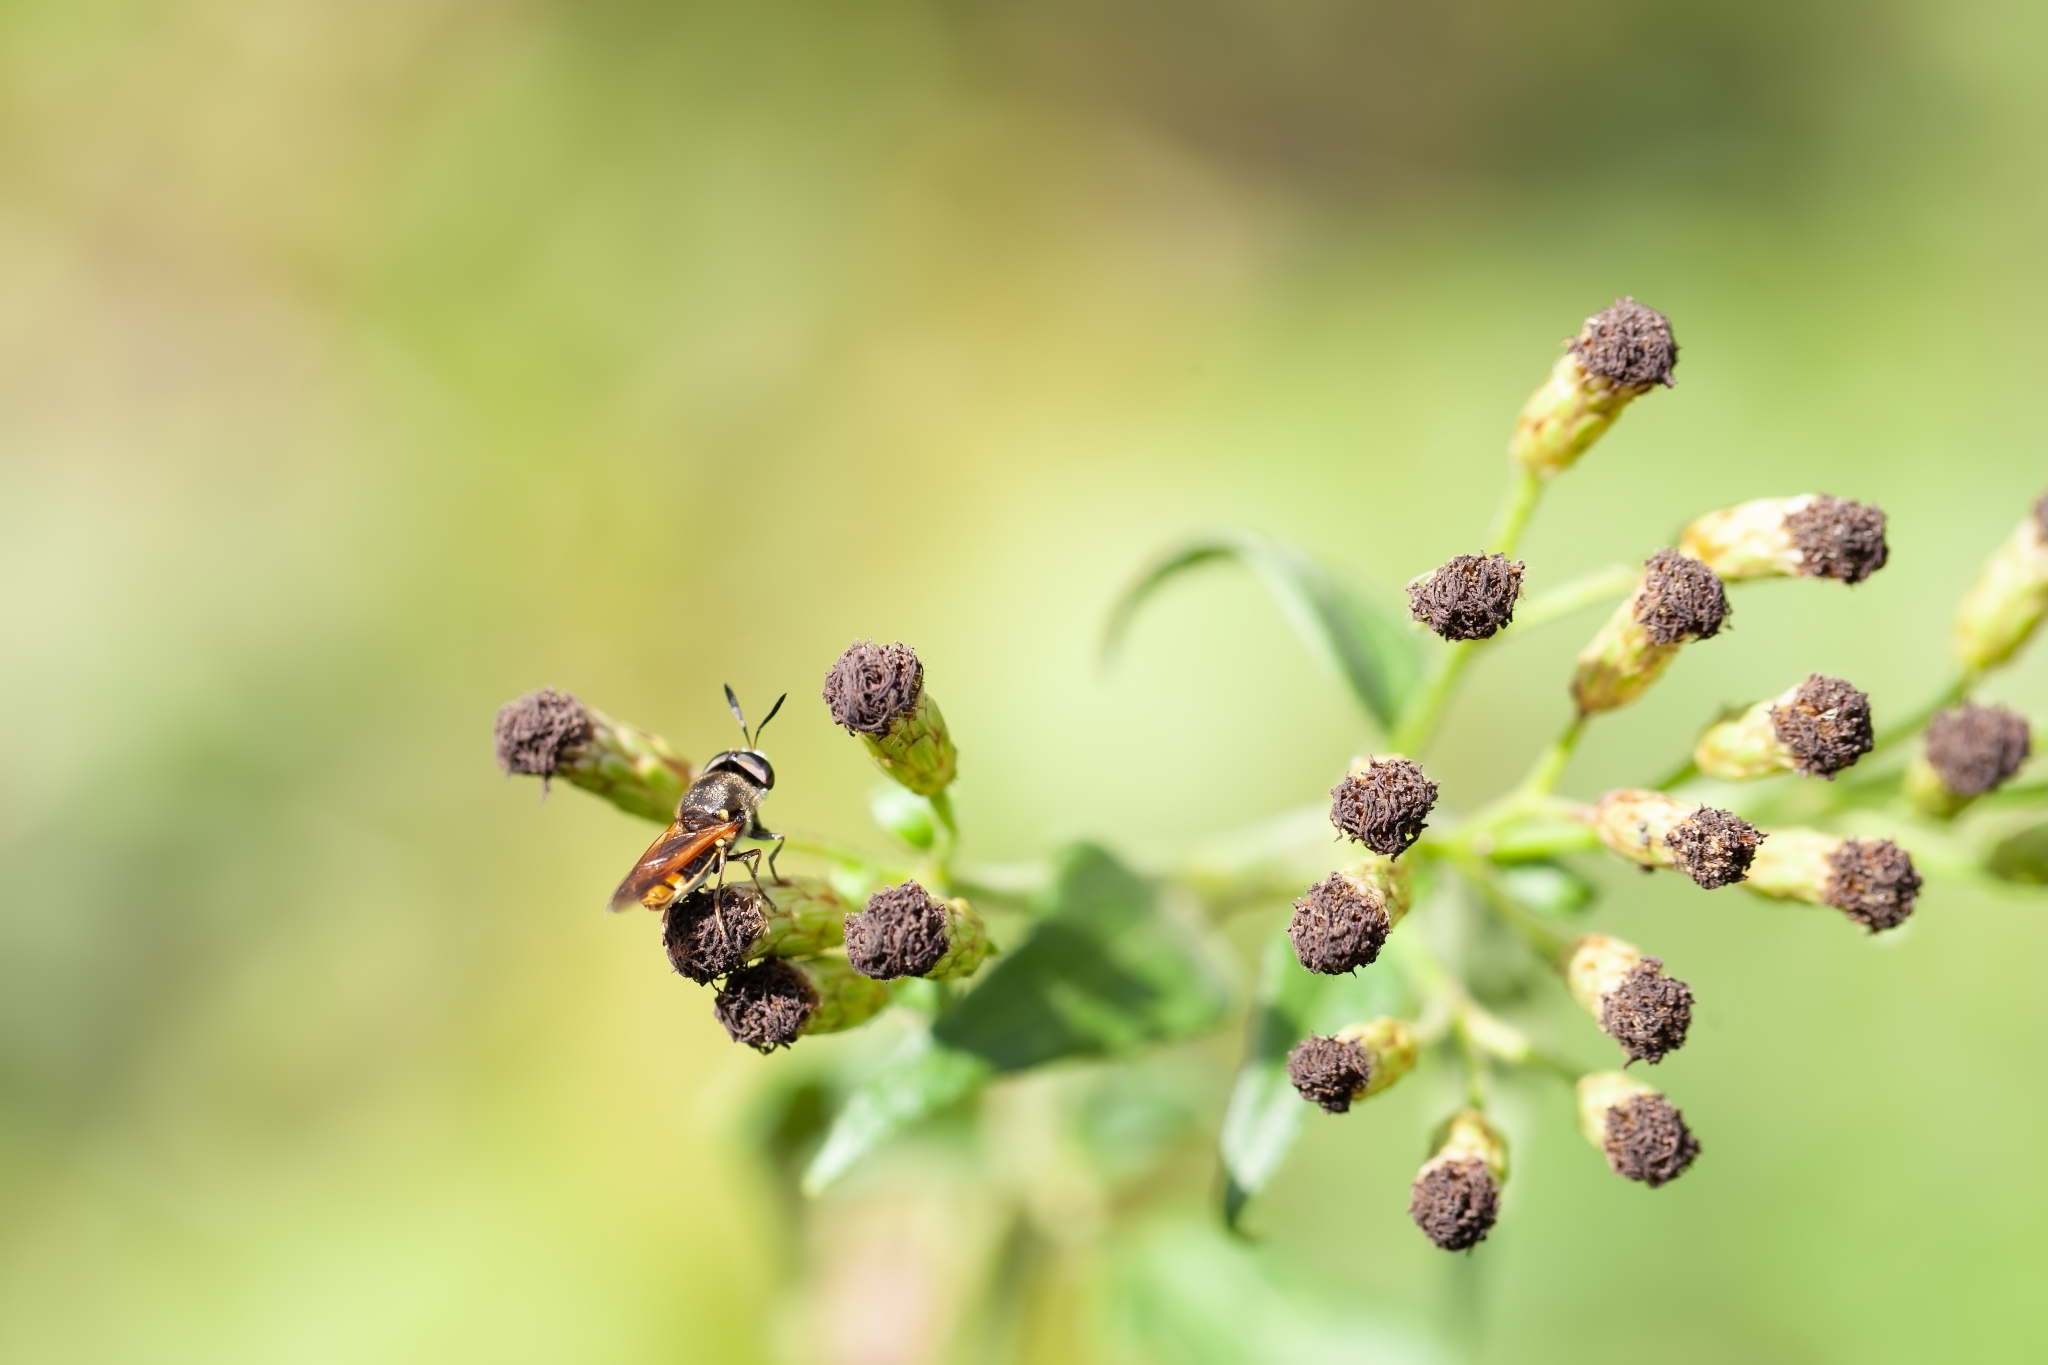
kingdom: Animalia
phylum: Arthropoda
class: Insecta
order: Diptera
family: Stratiomyidae
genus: Hoplitimyia
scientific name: Hoplitimyia mutabilis
